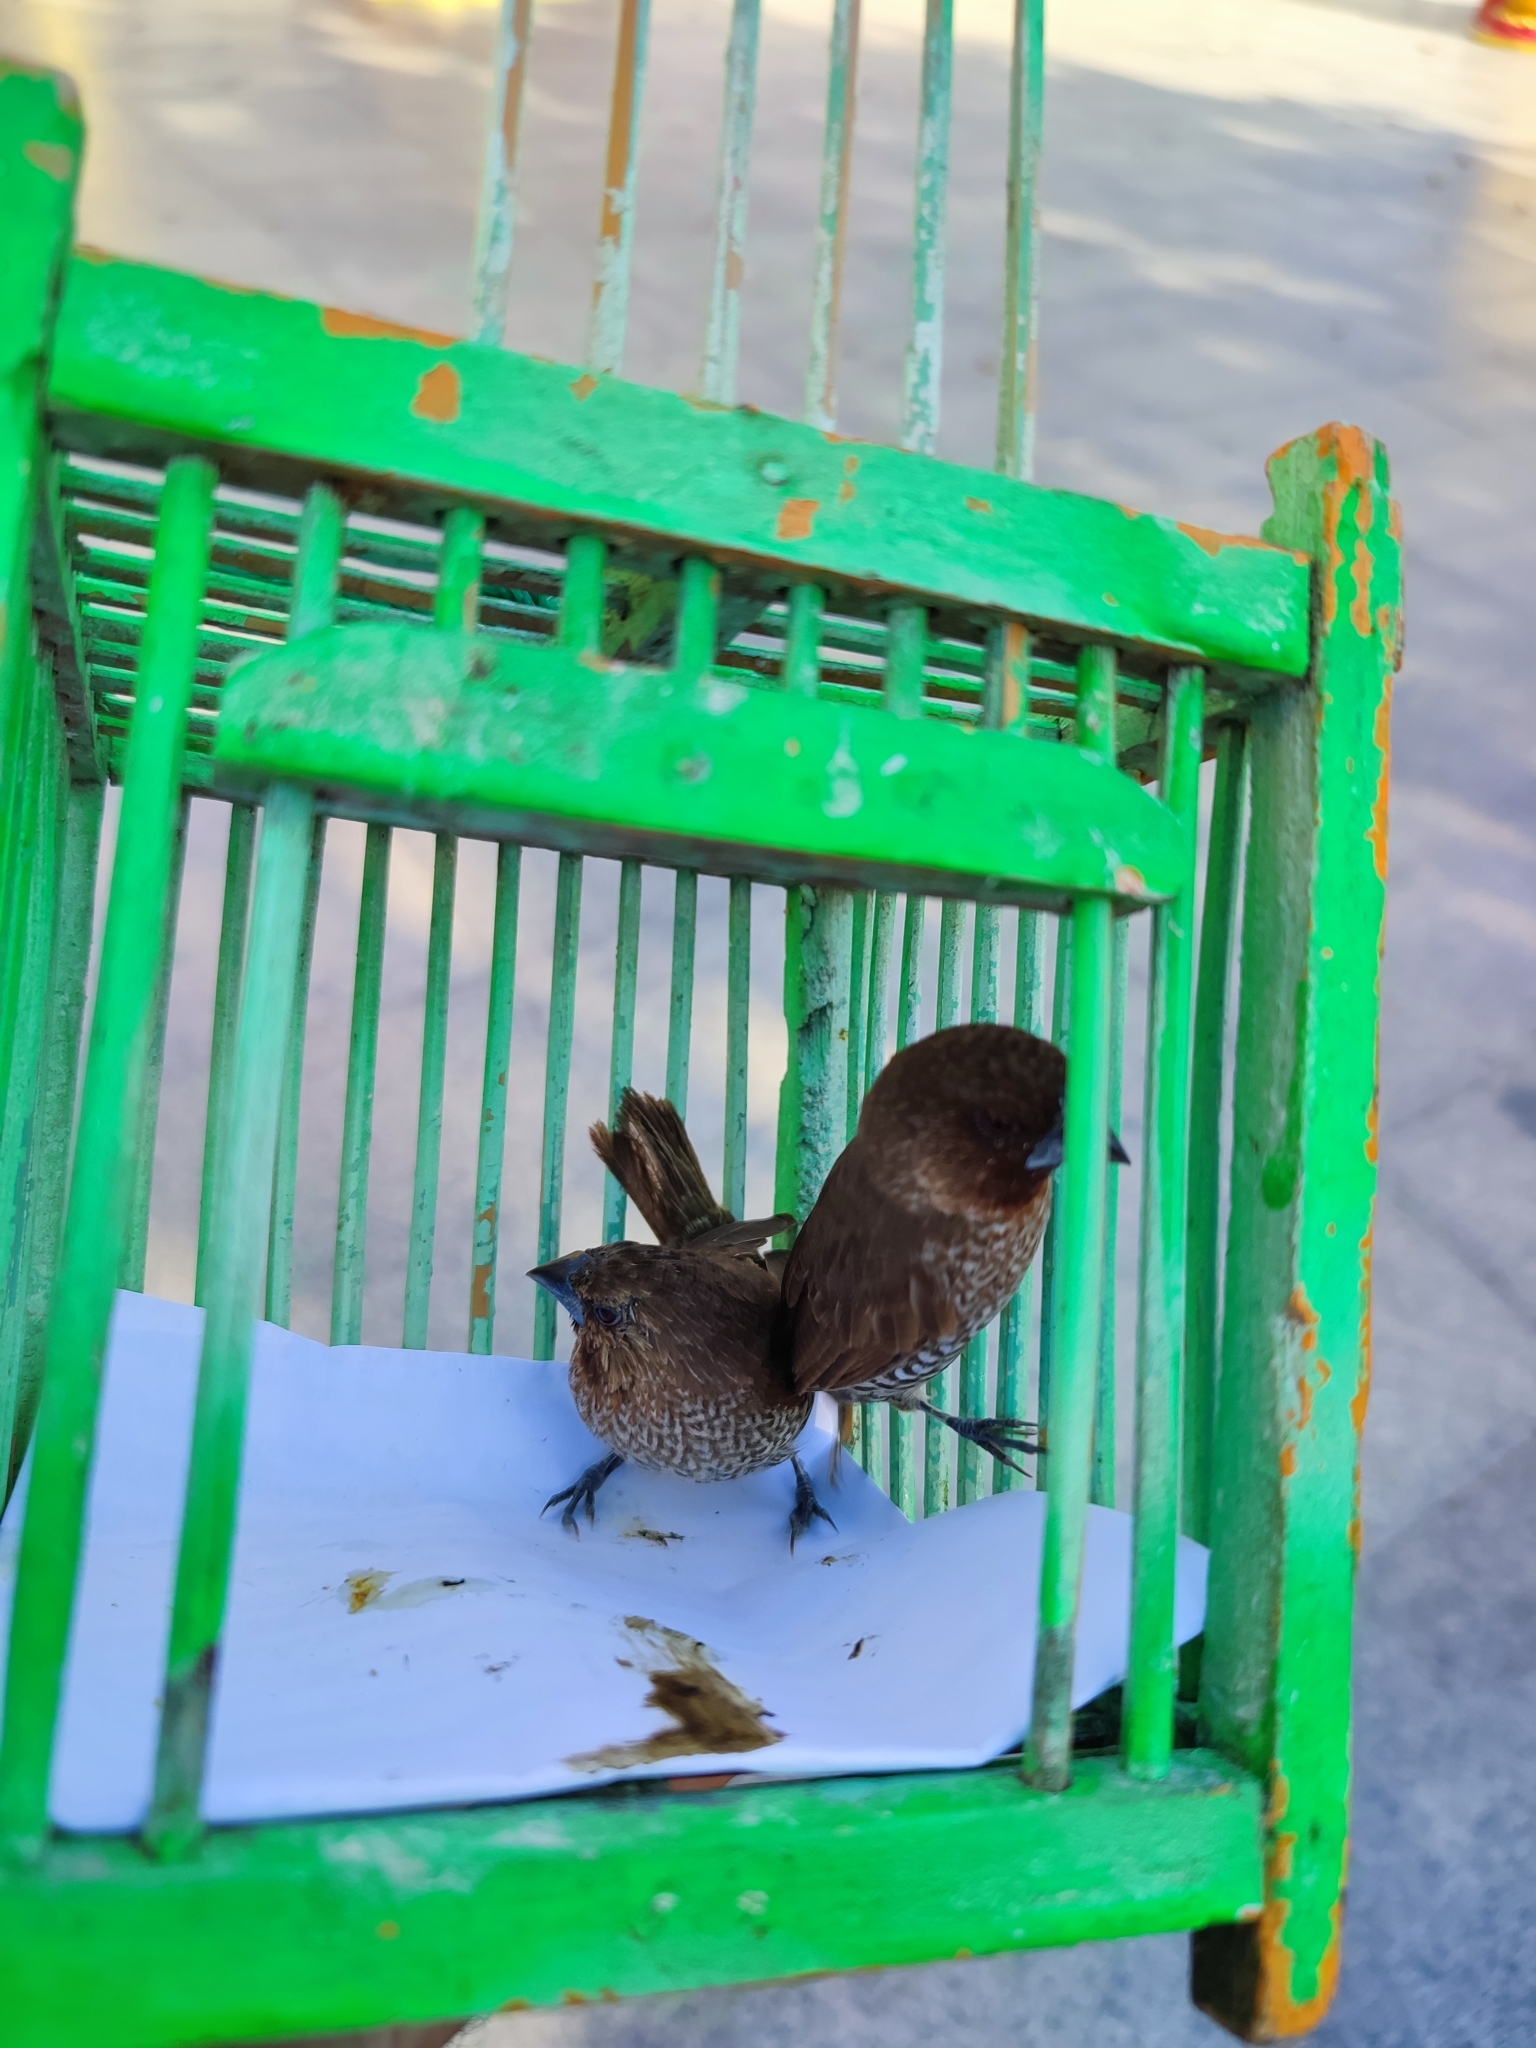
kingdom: Animalia
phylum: Chordata
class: Aves
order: Passeriformes
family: Estrildidae
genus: Lonchura
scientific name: Lonchura punctulata
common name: Scaly-breasted munia
